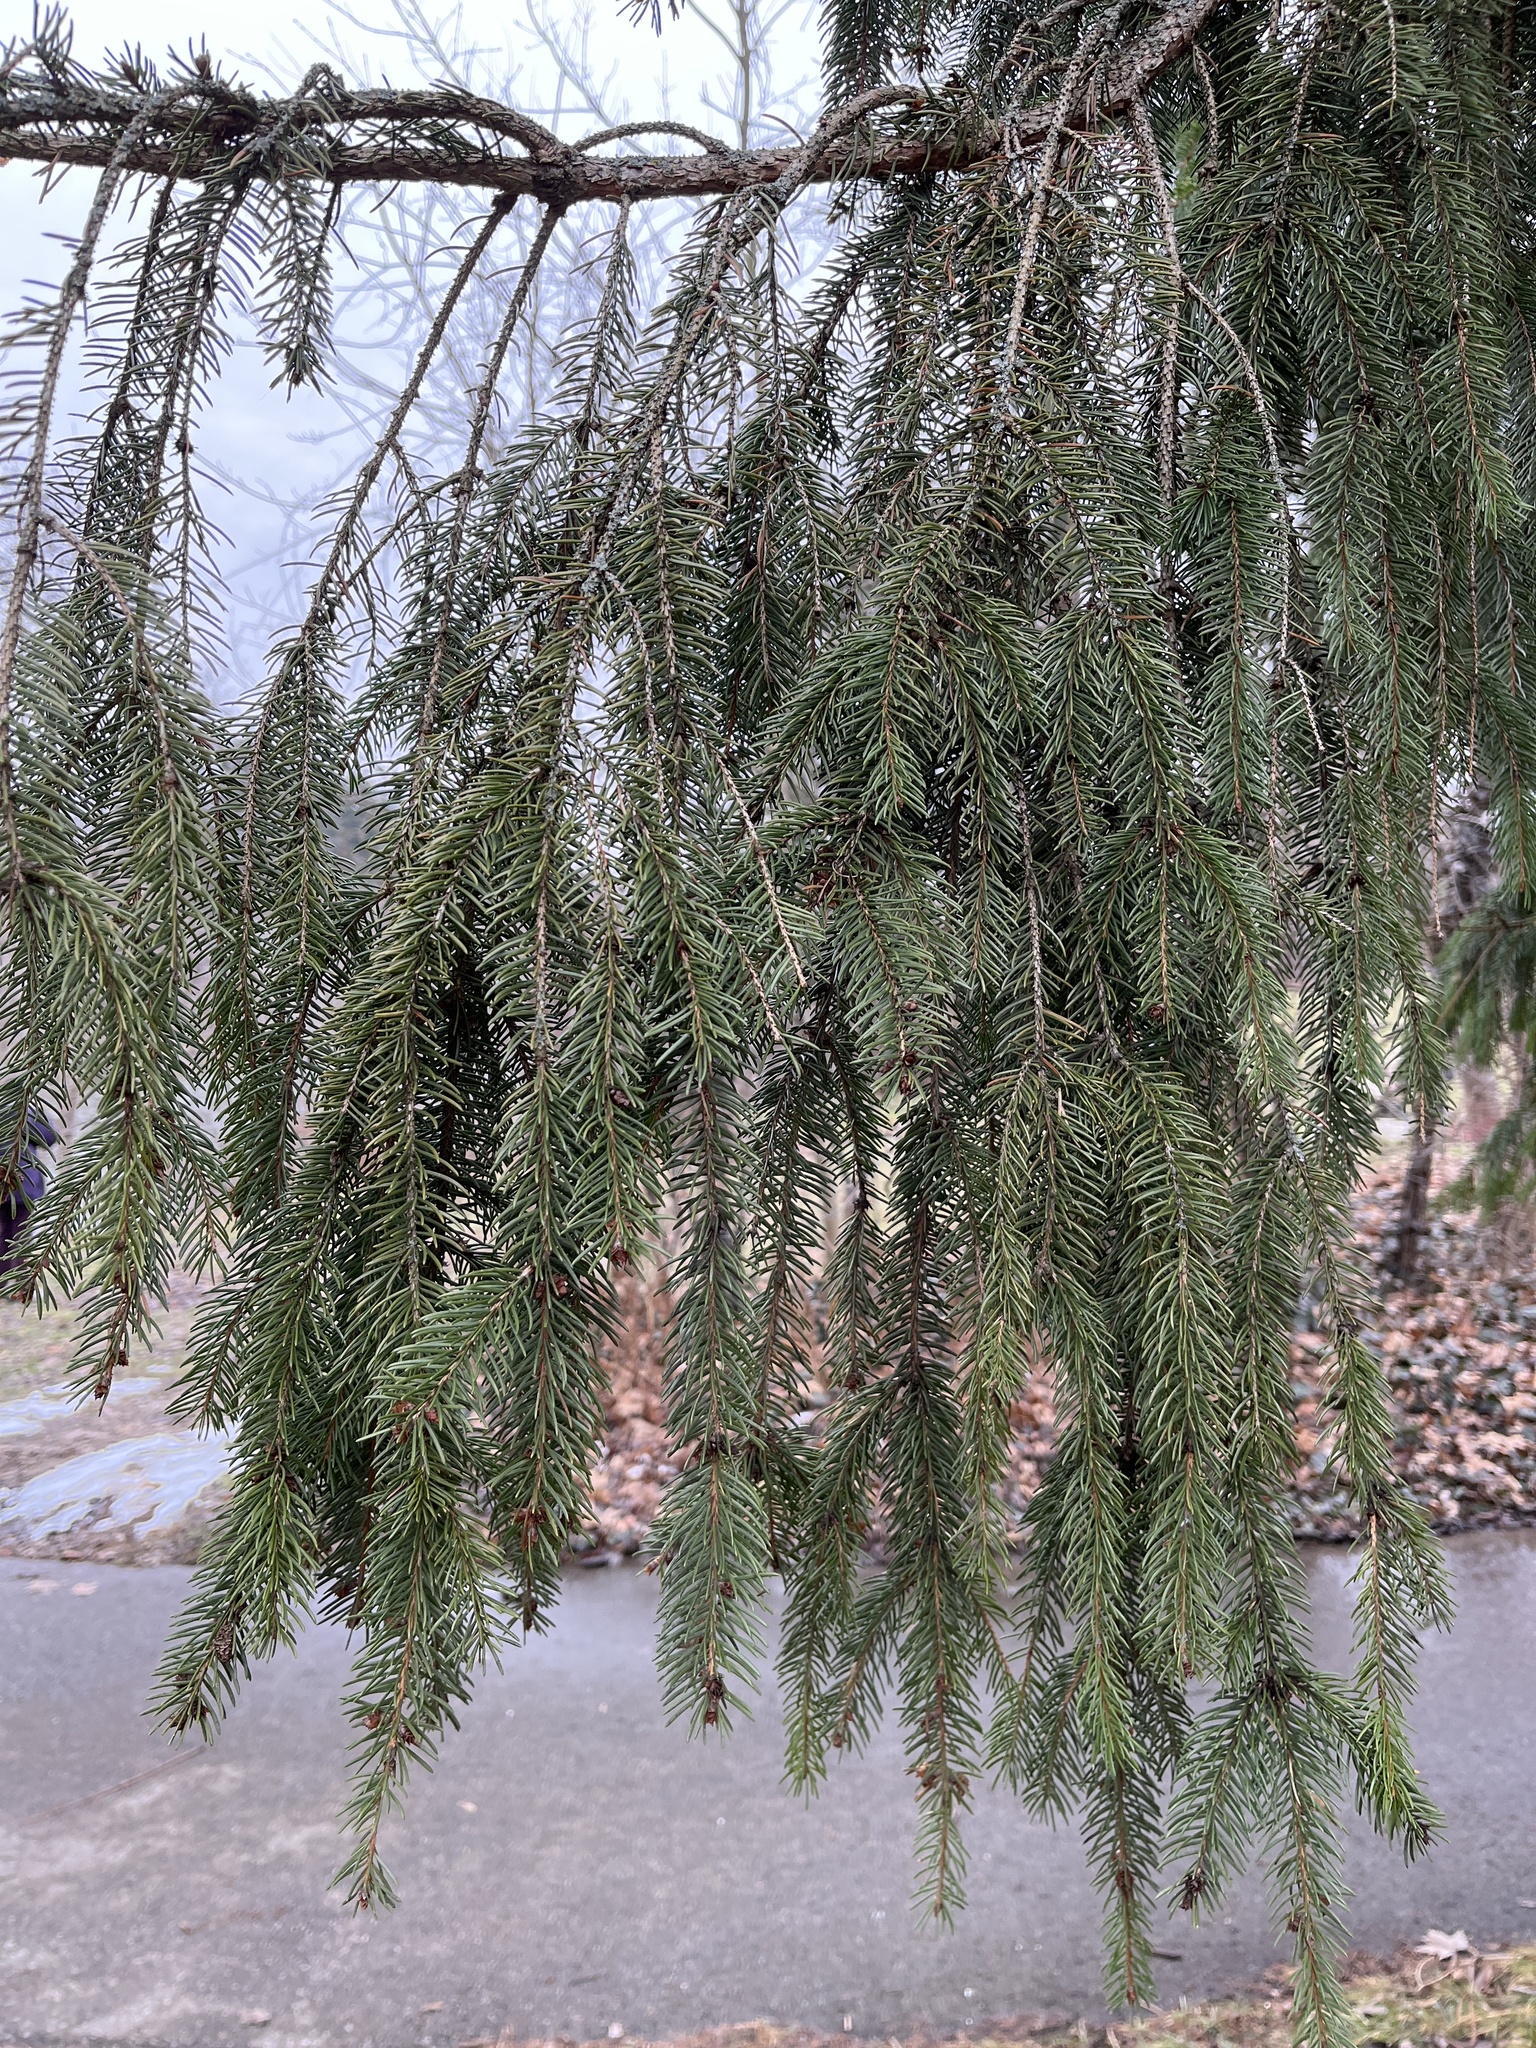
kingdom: Plantae
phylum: Tracheophyta
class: Pinopsida
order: Pinales
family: Pinaceae
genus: Picea
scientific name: Picea abies
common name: Norway spruce
